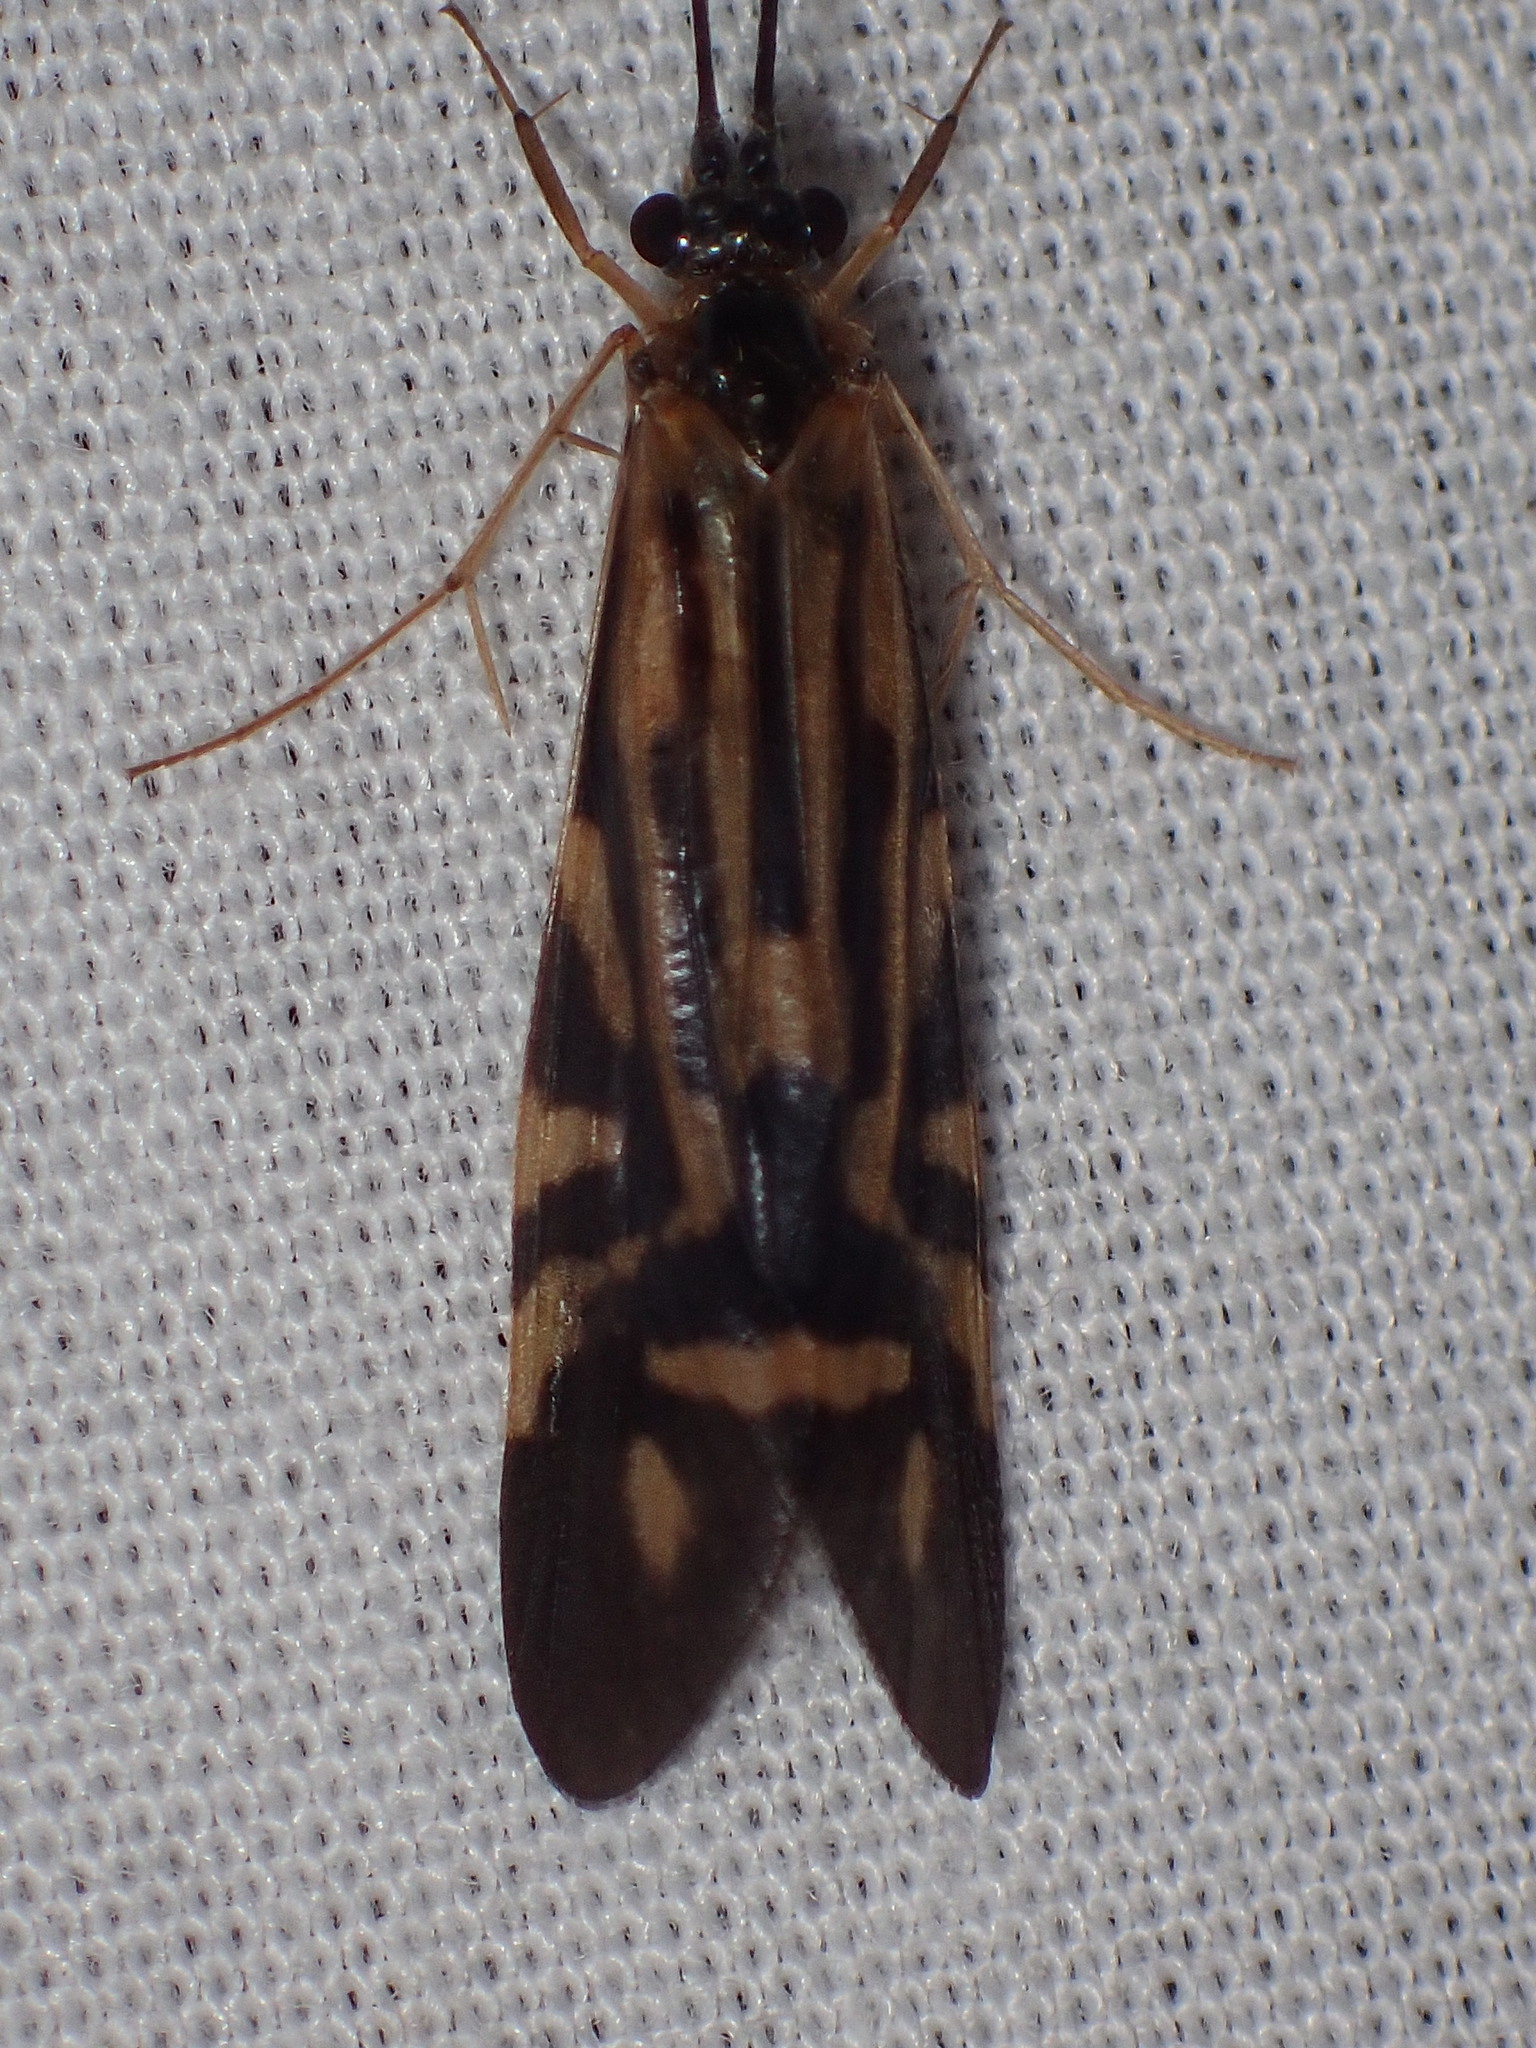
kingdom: Animalia
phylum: Arthropoda
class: Insecta
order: Trichoptera
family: Hydropsychidae
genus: Macrostemum
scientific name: Macrostemum carolina
